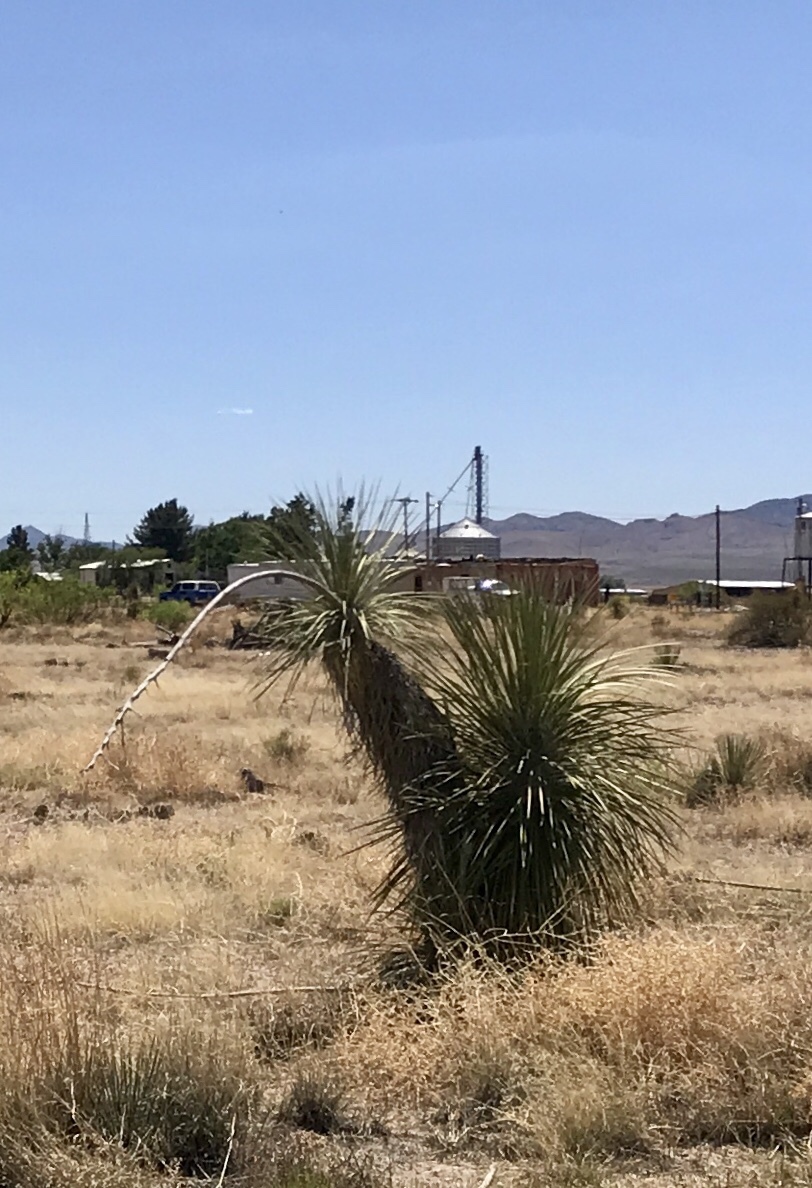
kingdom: Plantae
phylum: Tracheophyta
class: Liliopsida
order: Asparagales
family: Asparagaceae
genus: Yucca
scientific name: Yucca elata
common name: Palmella
